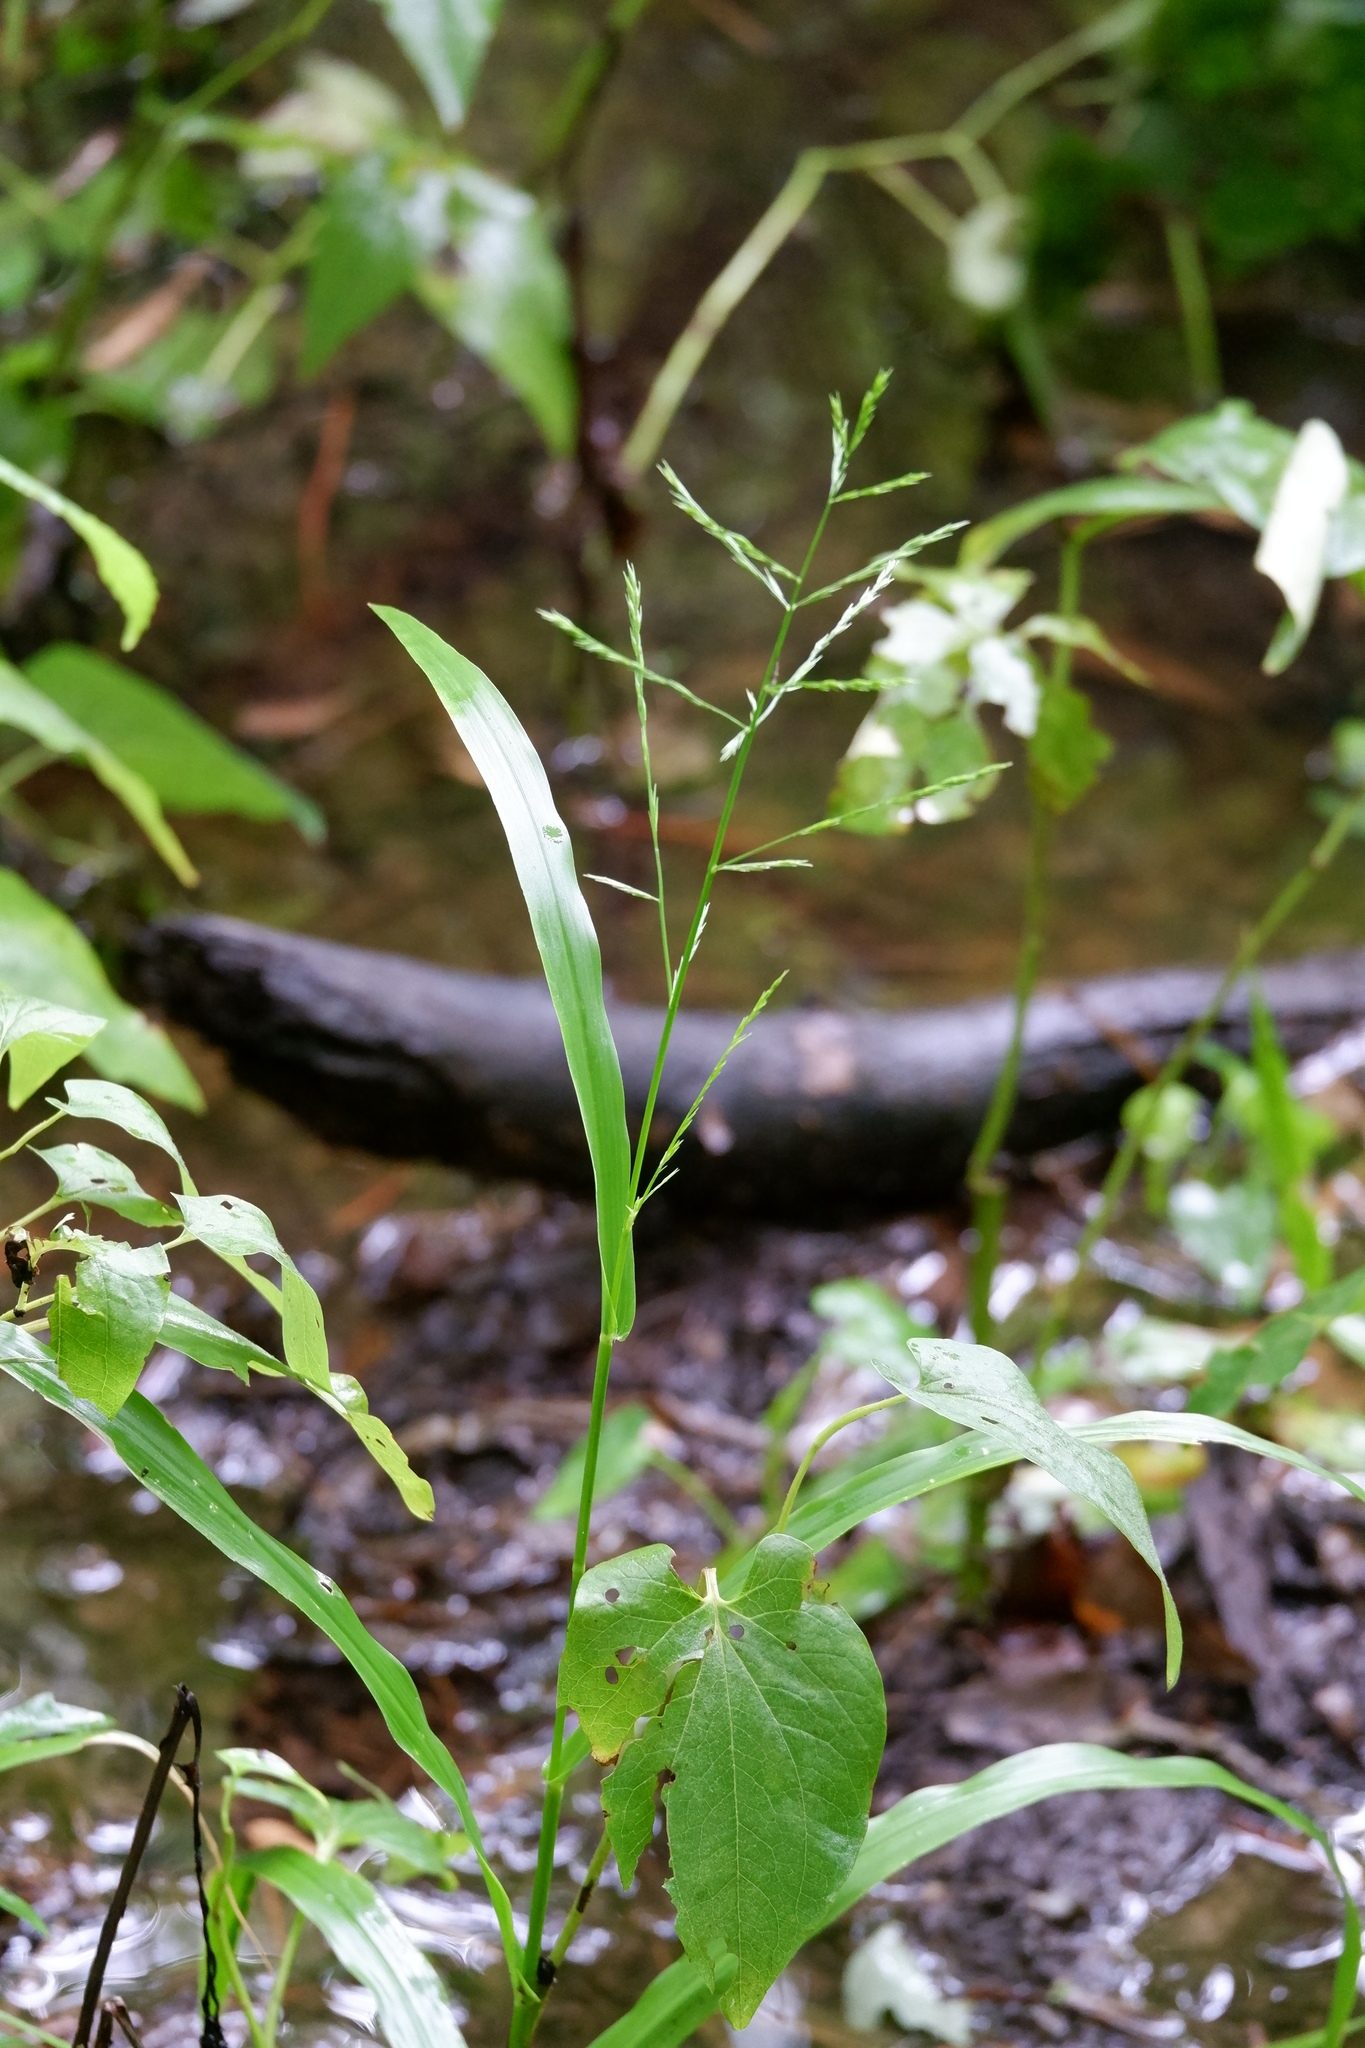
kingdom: Plantae
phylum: Tracheophyta
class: Liliopsida
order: Poales
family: Poaceae
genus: Panicum
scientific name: Panicum gymnocarpon
